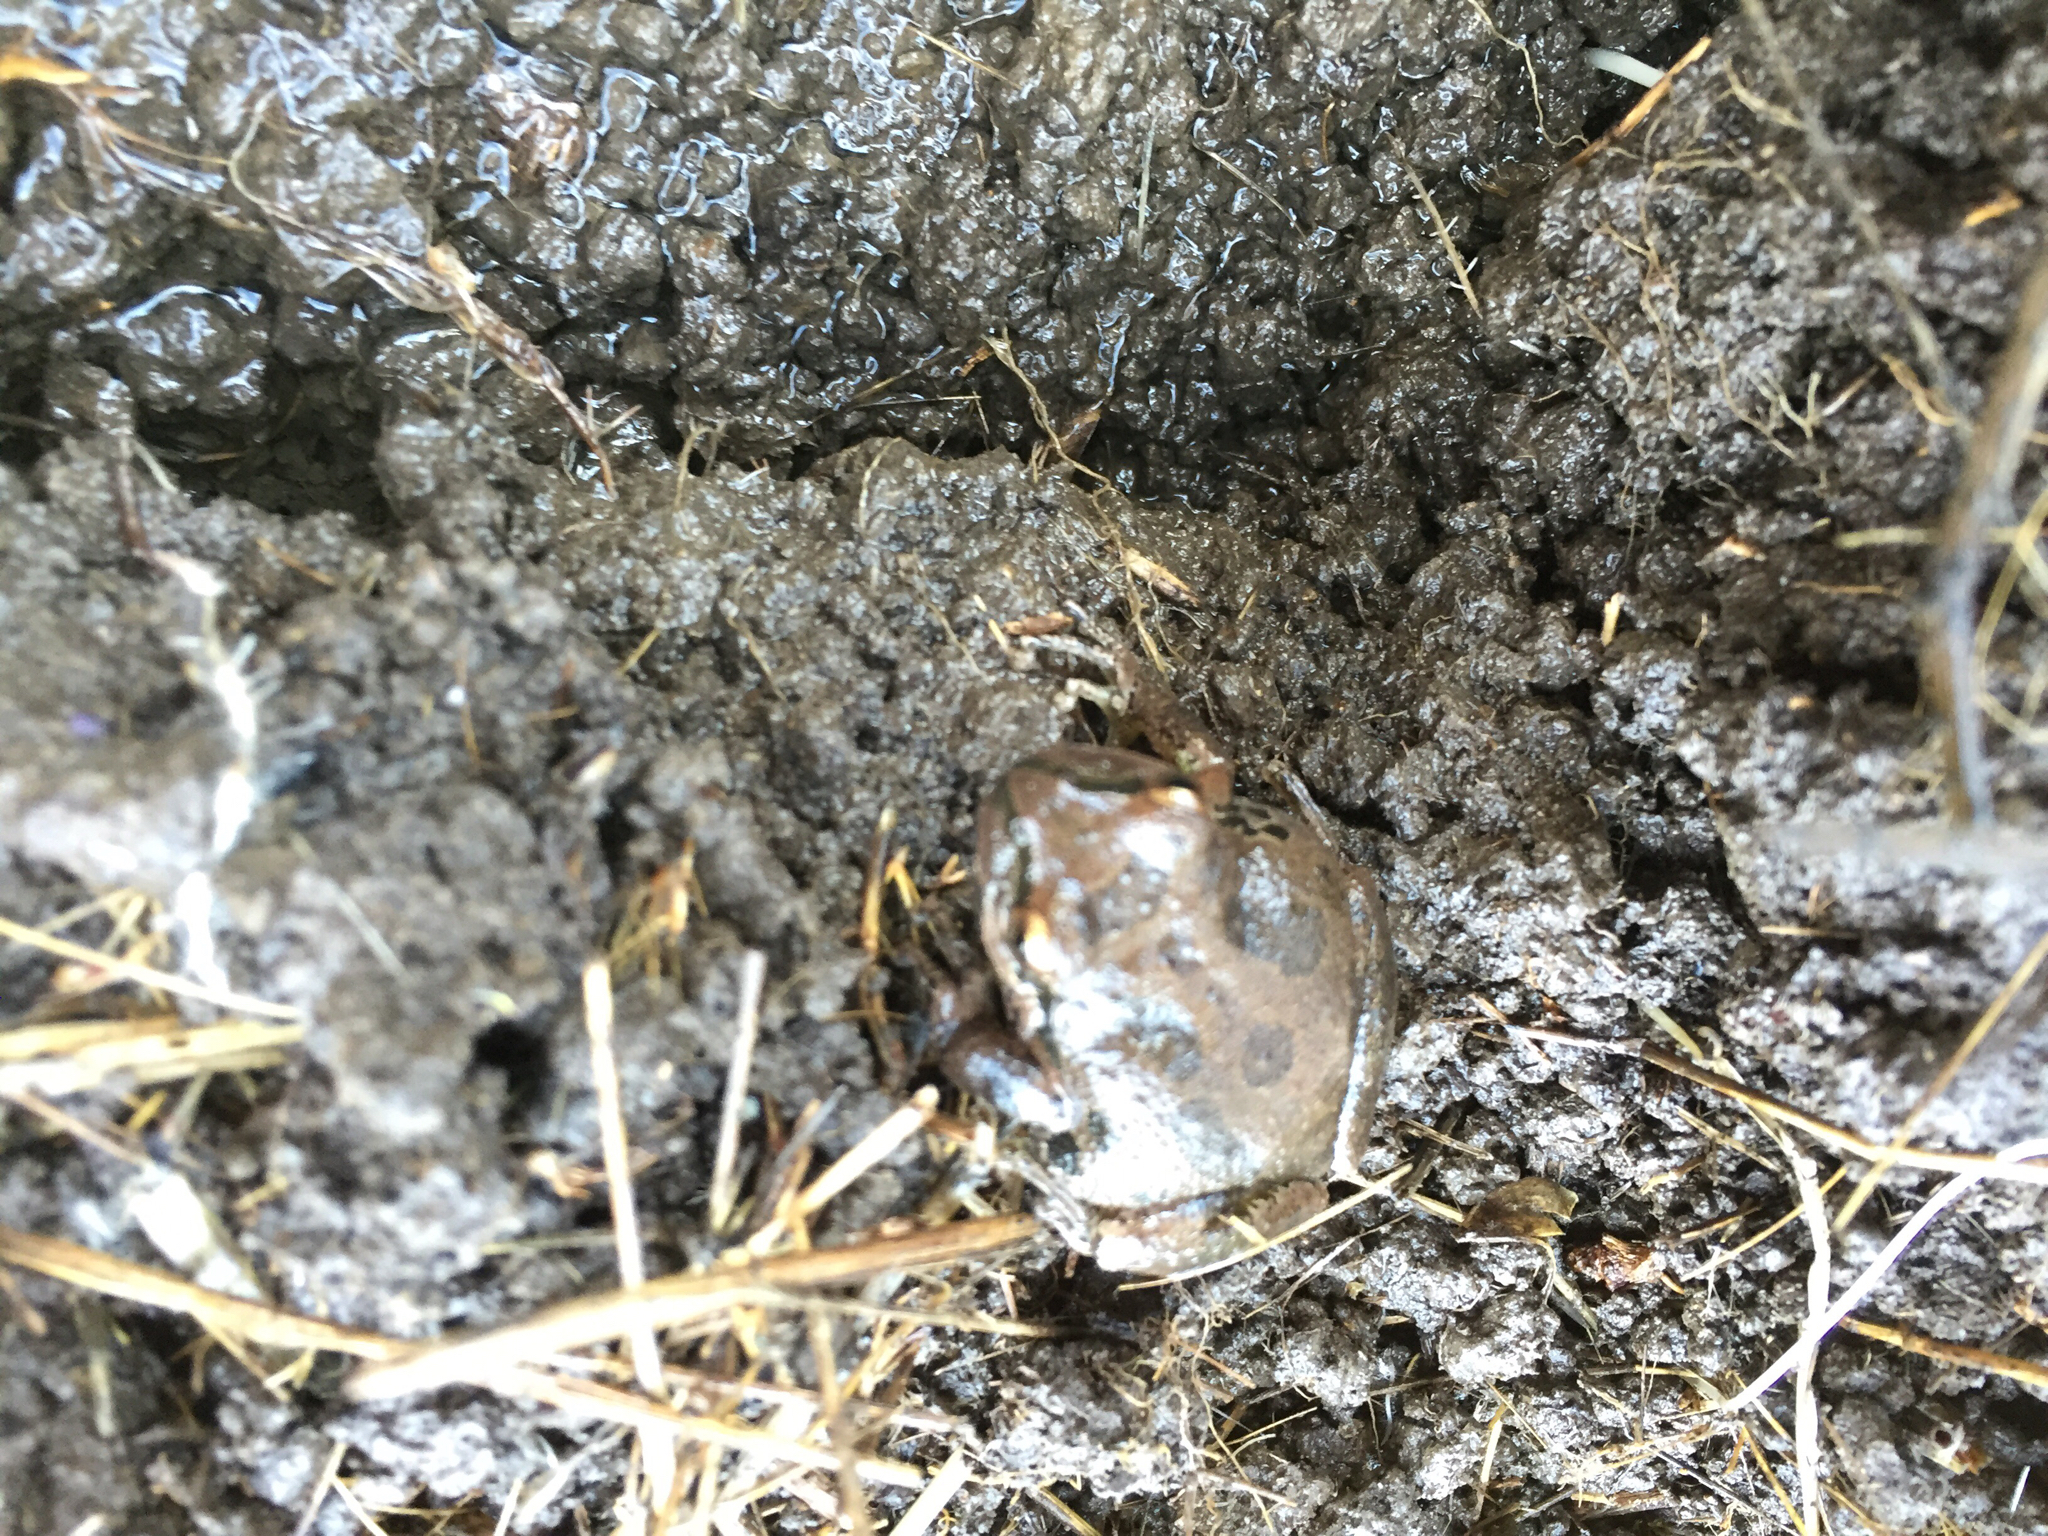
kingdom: Animalia
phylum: Chordata
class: Amphibia
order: Anura
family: Hylidae
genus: Pseudacris
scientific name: Pseudacris regilla
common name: Pacific chorus frog
